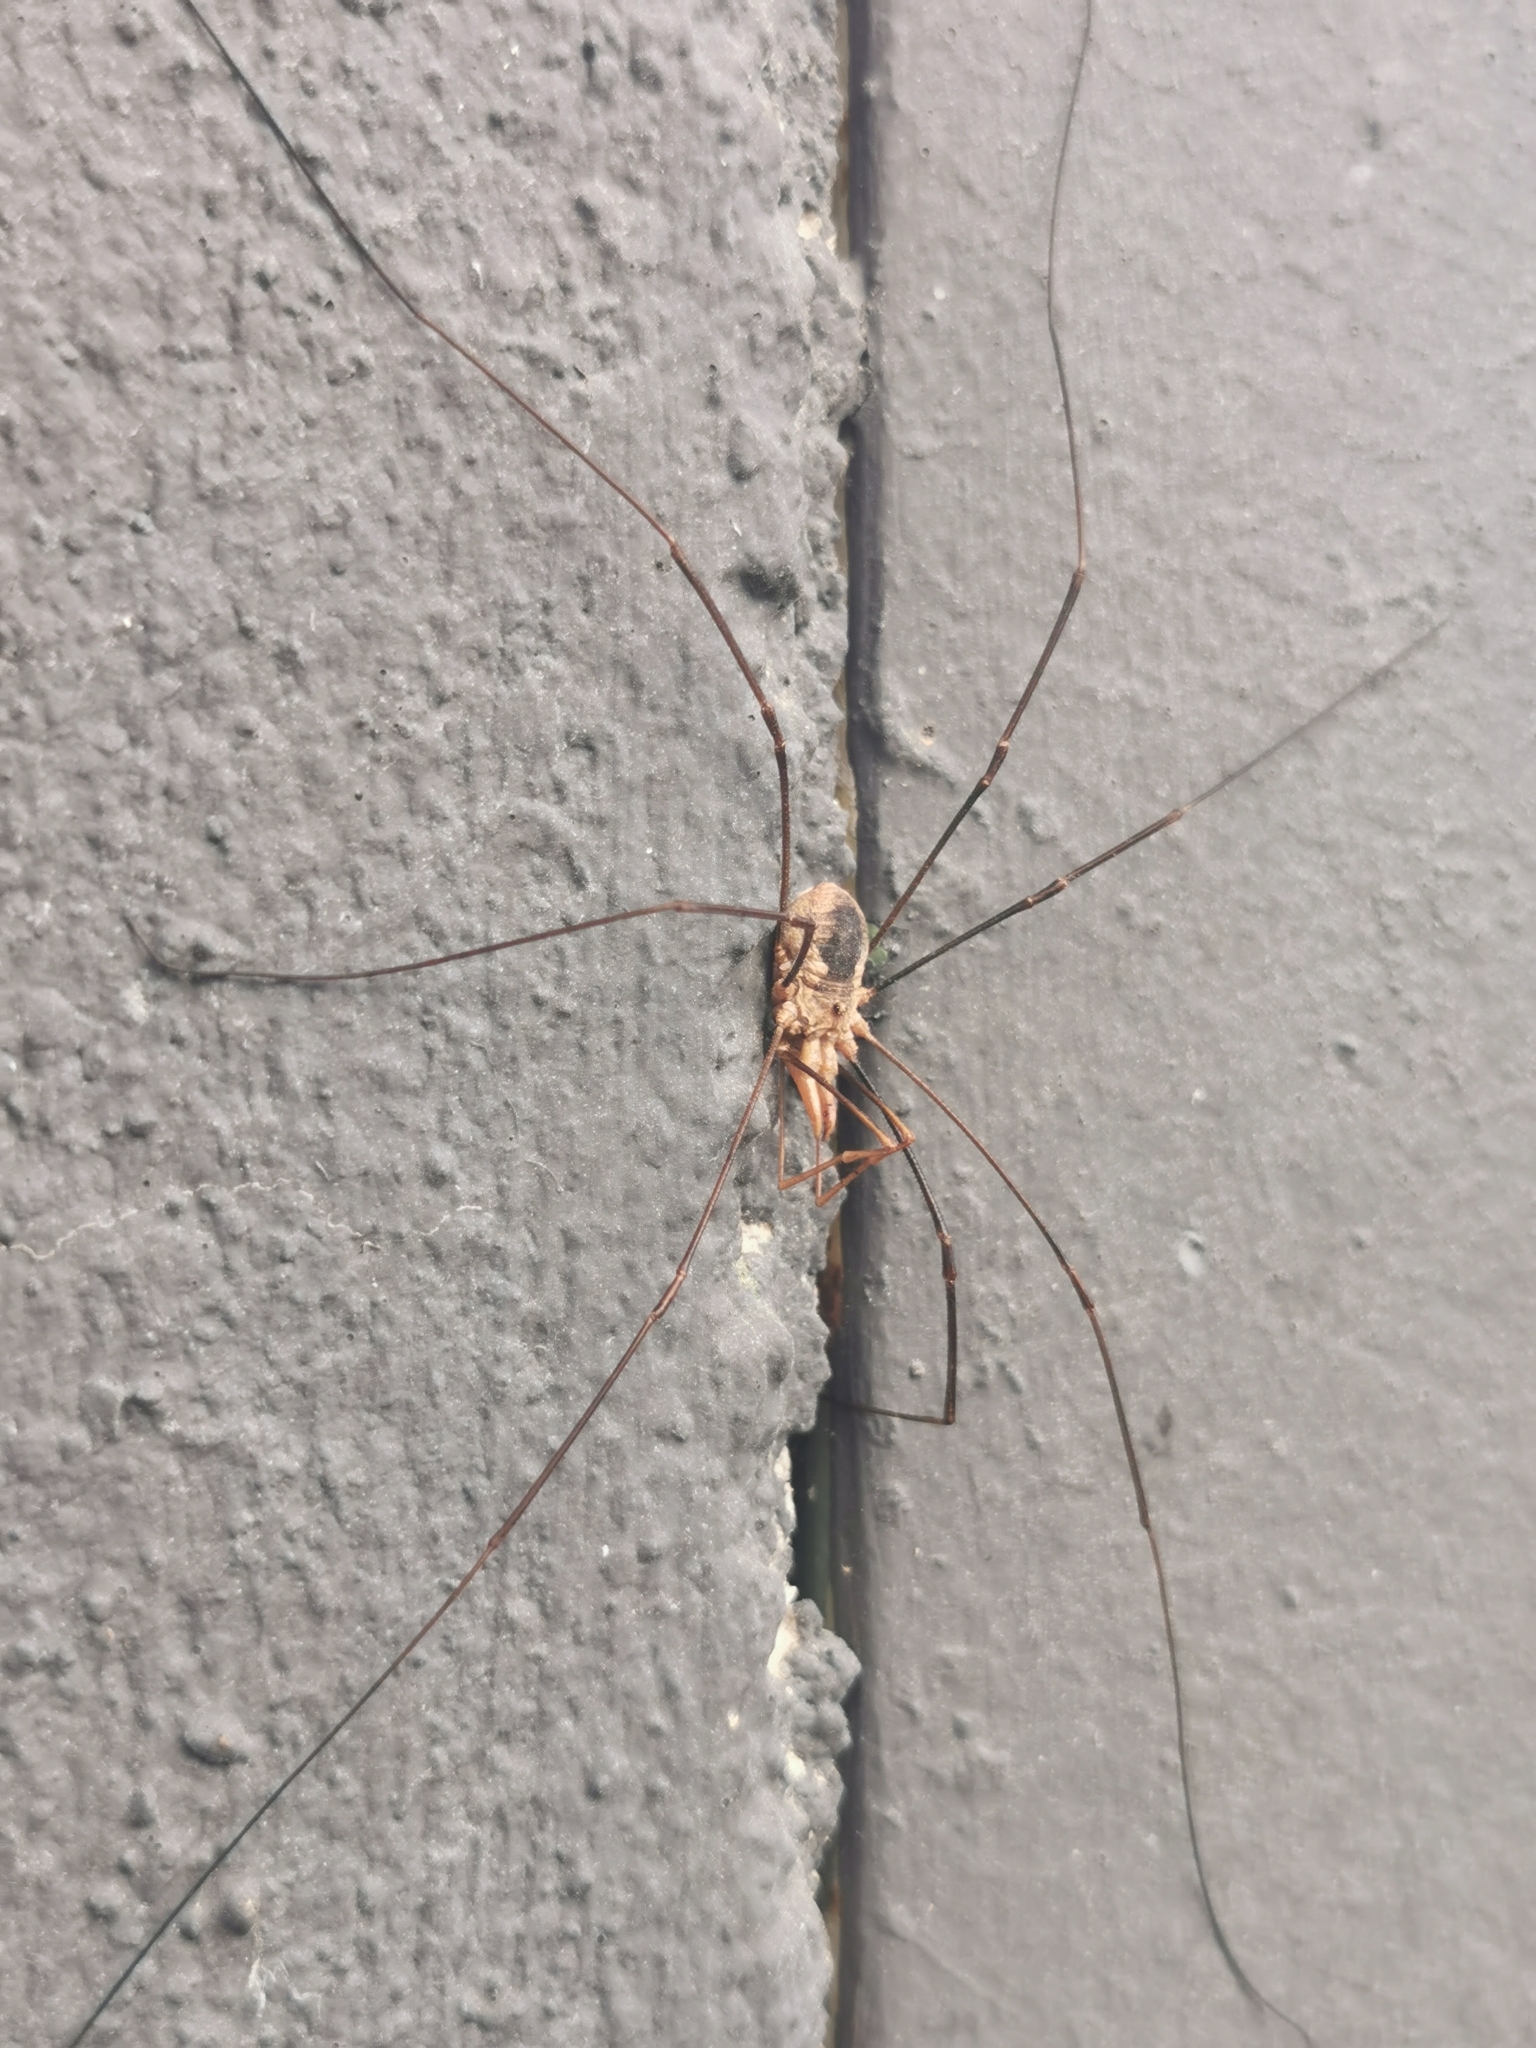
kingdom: Animalia
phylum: Arthropoda
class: Arachnida
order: Opiliones
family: Phalangiidae
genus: Phalangium
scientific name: Phalangium opilio
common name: Daddy longleg
